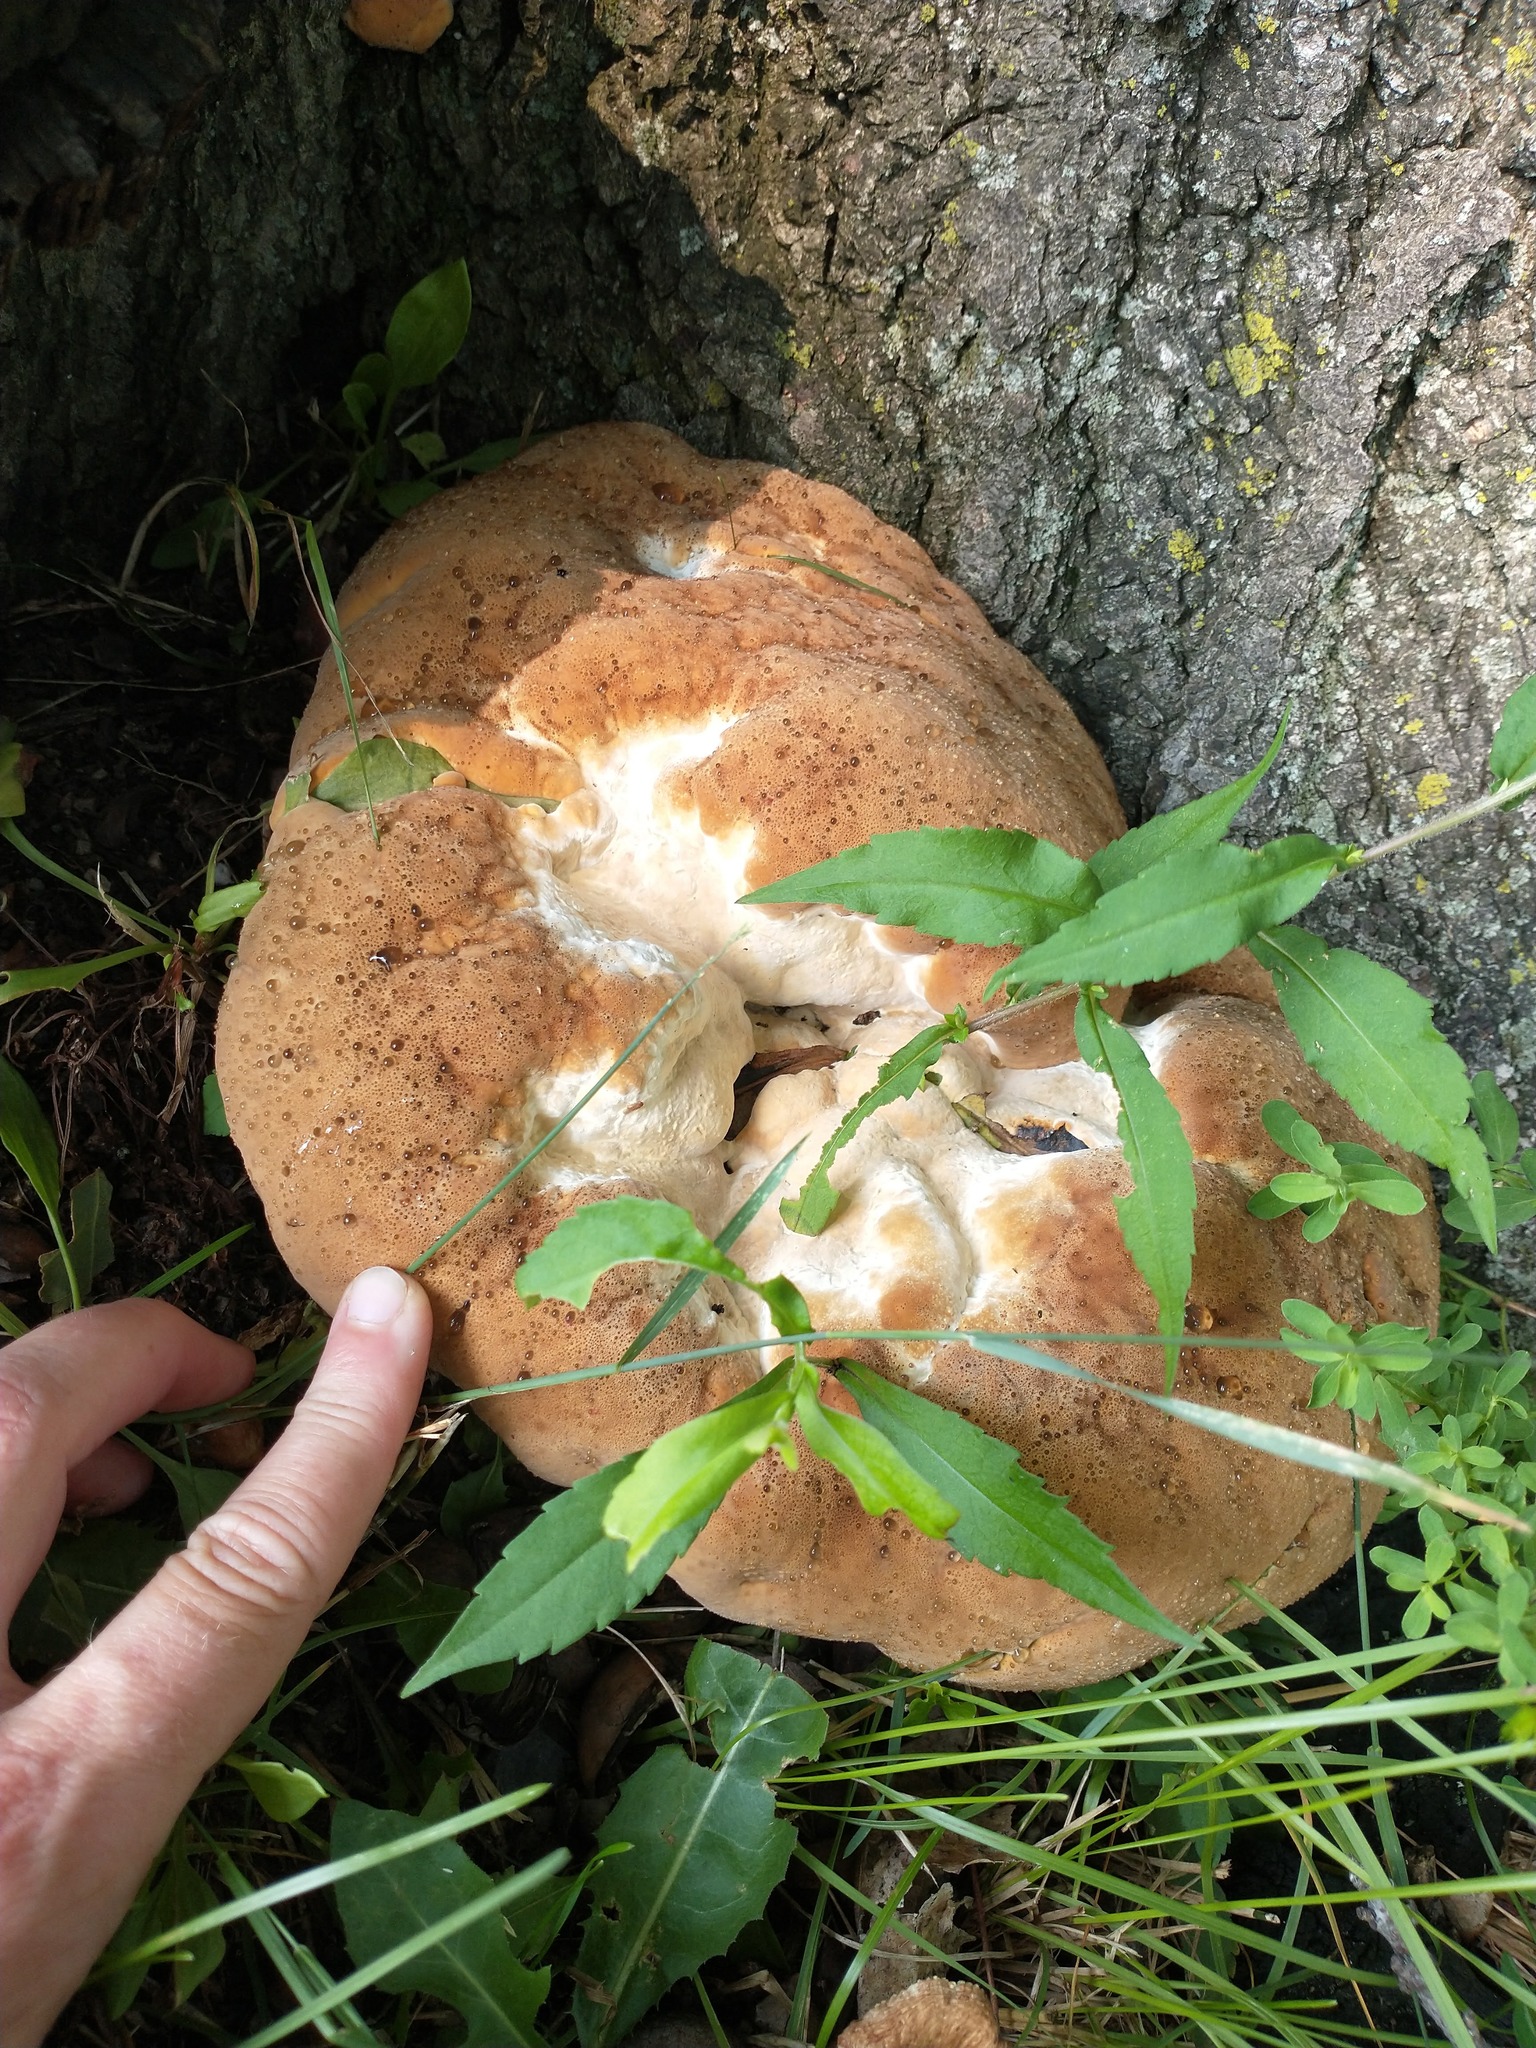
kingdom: Fungi
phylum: Basidiomycota
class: Agaricomycetes
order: Hymenochaetales
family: Hymenochaetaceae
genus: Pseudoinonotus
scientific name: Pseudoinonotus dryadeus
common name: Oak bracket
